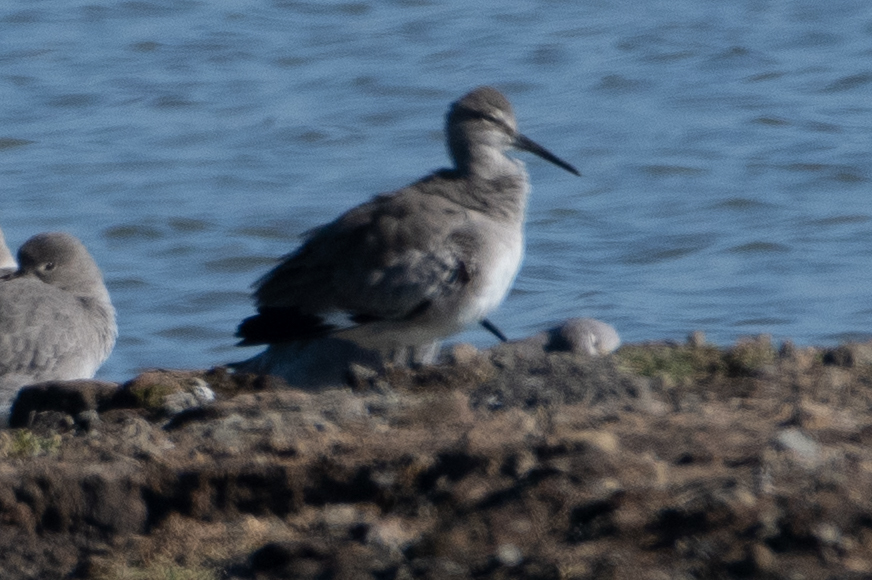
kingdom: Animalia
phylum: Chordata
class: Aves
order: Charadriiformes
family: Scolopacidae
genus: Tringa
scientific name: Tringa semipalmata
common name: Willet
